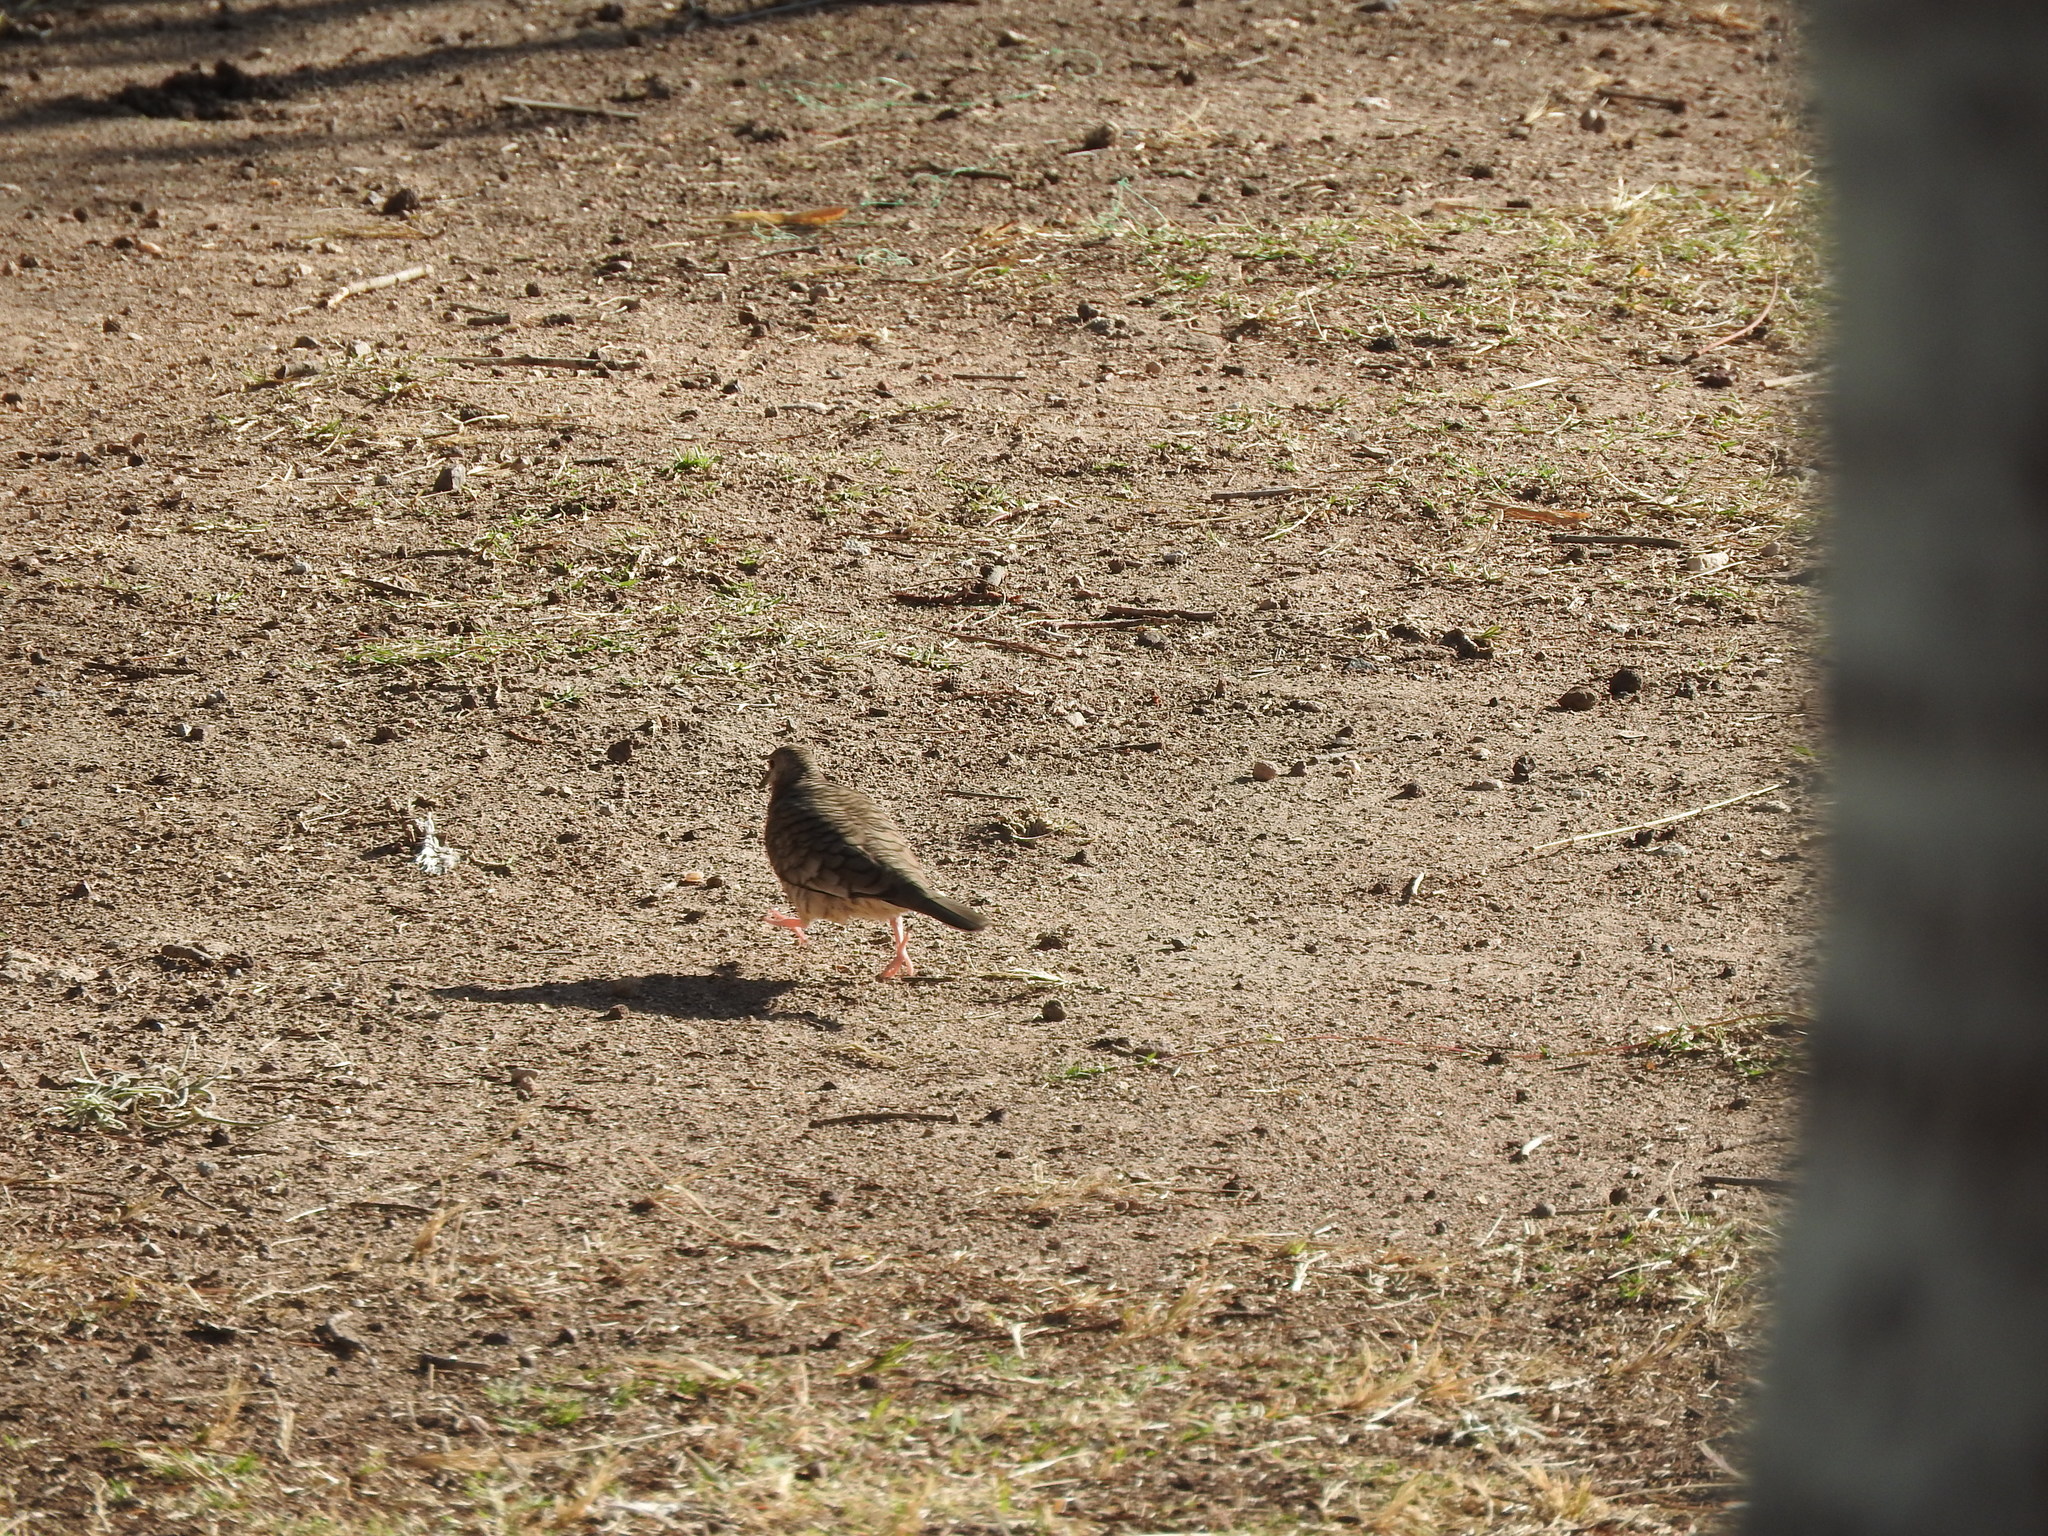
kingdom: Animalia
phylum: Chordata
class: Aves
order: Columbiformes
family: Columbidae
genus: Columbina
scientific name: Columbina inca
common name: Inca dove
